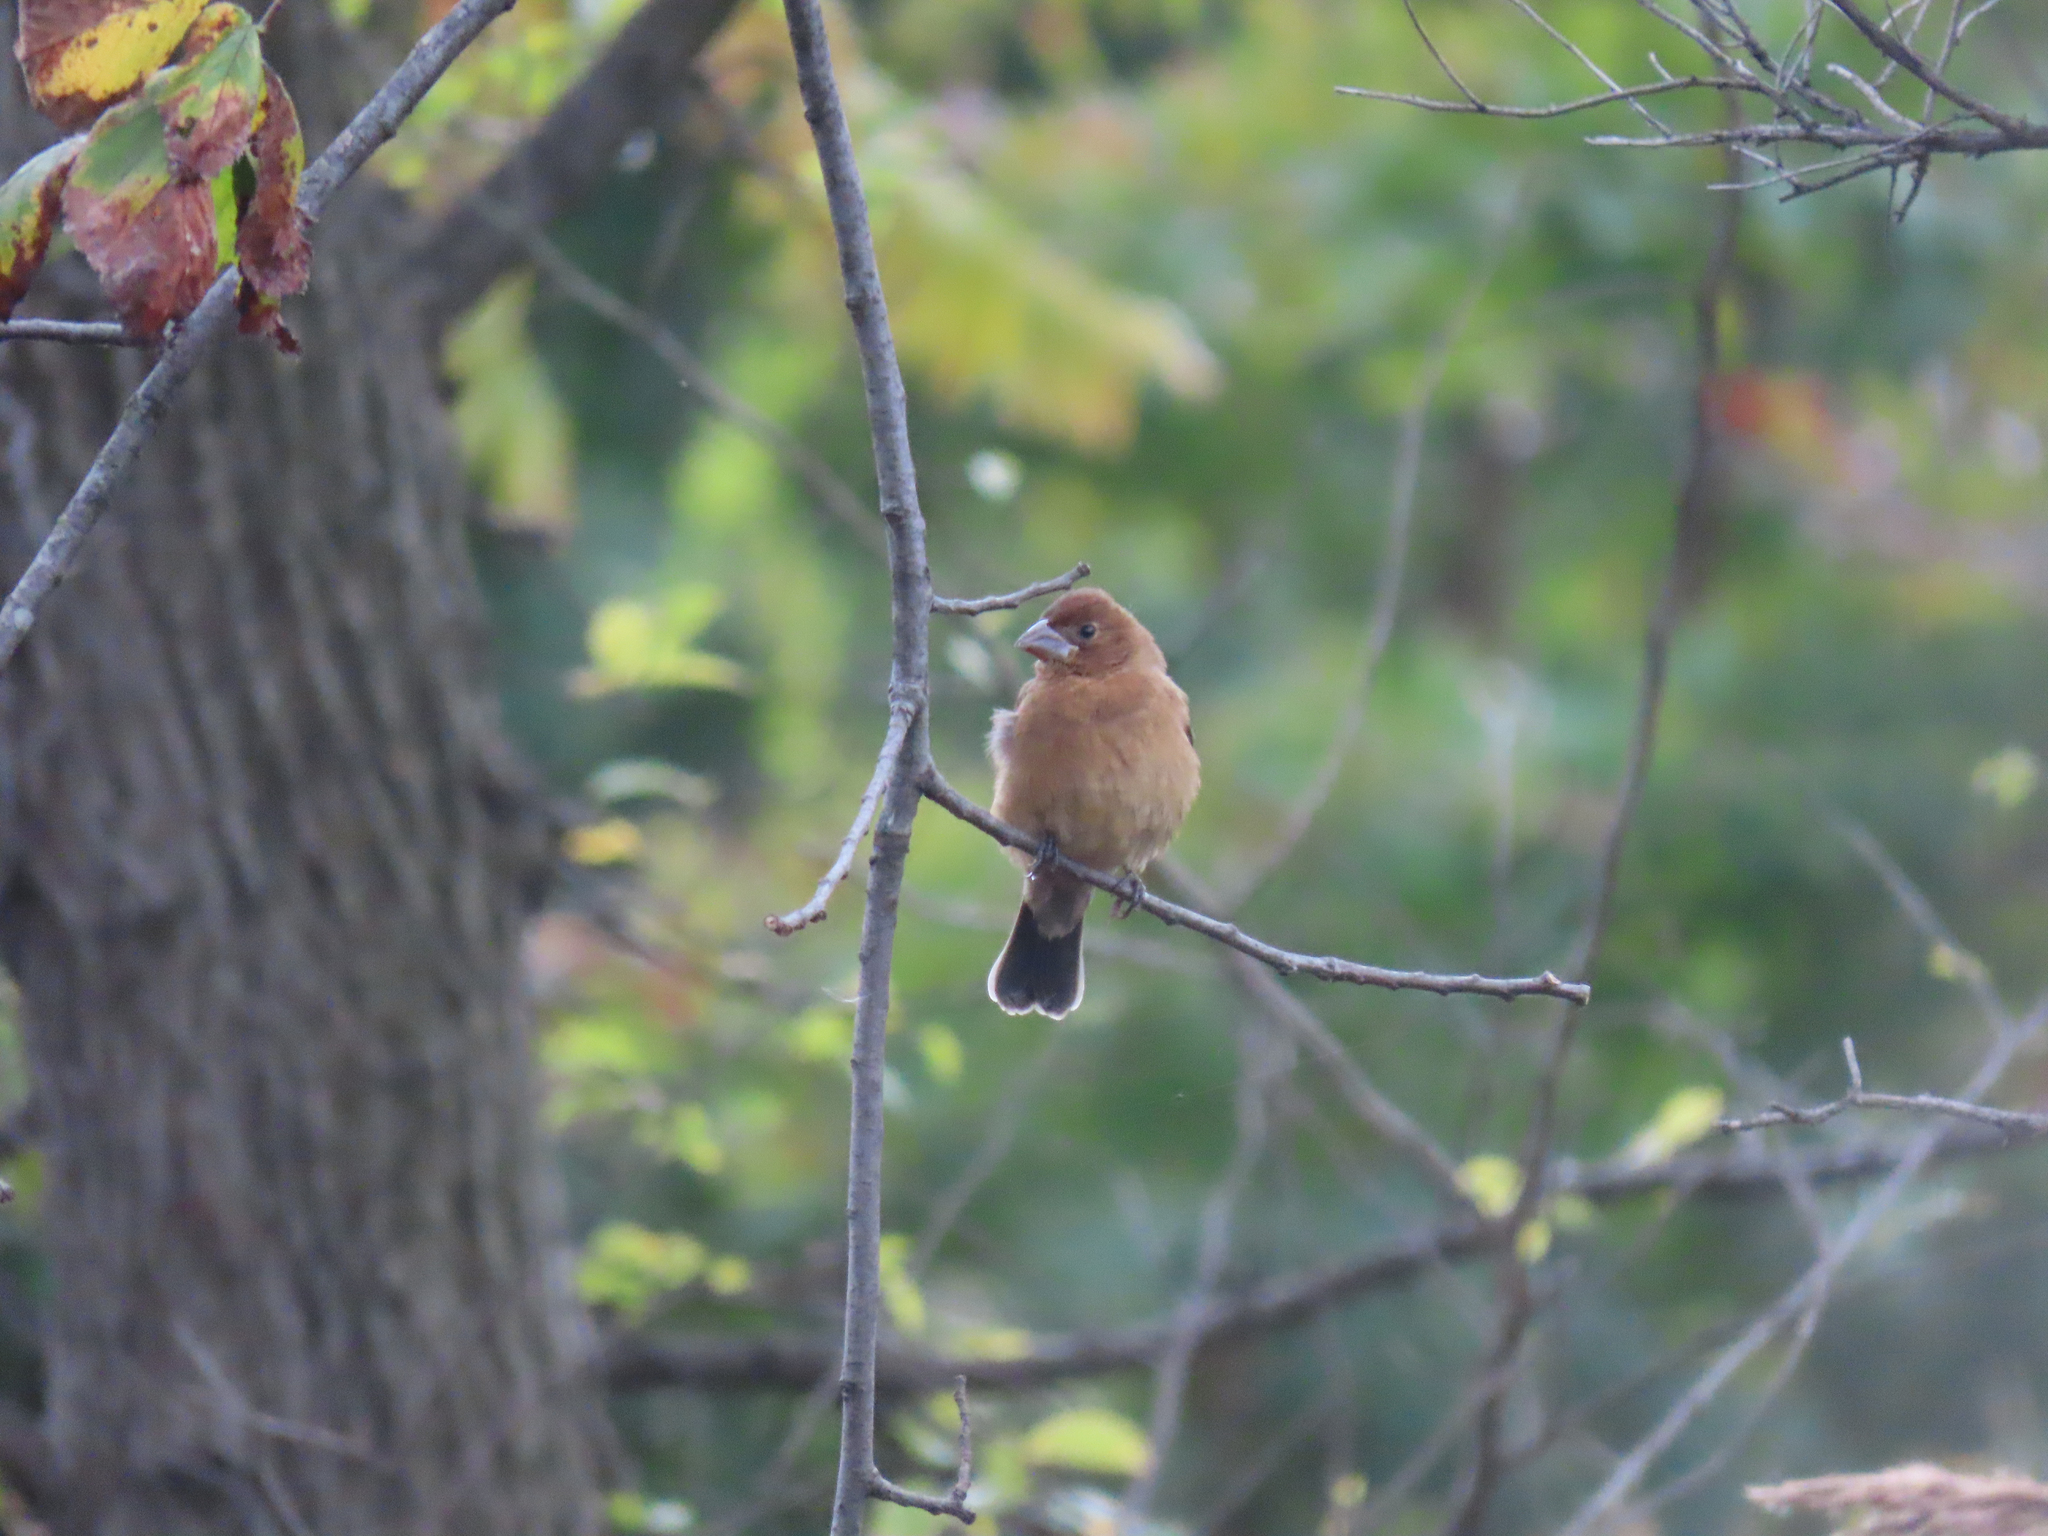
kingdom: Animalia
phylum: Chordata
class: Aves
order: Passeriformes
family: Cardinalidae
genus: Passerina
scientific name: Passerina caerulea
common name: Blue grosbeak
